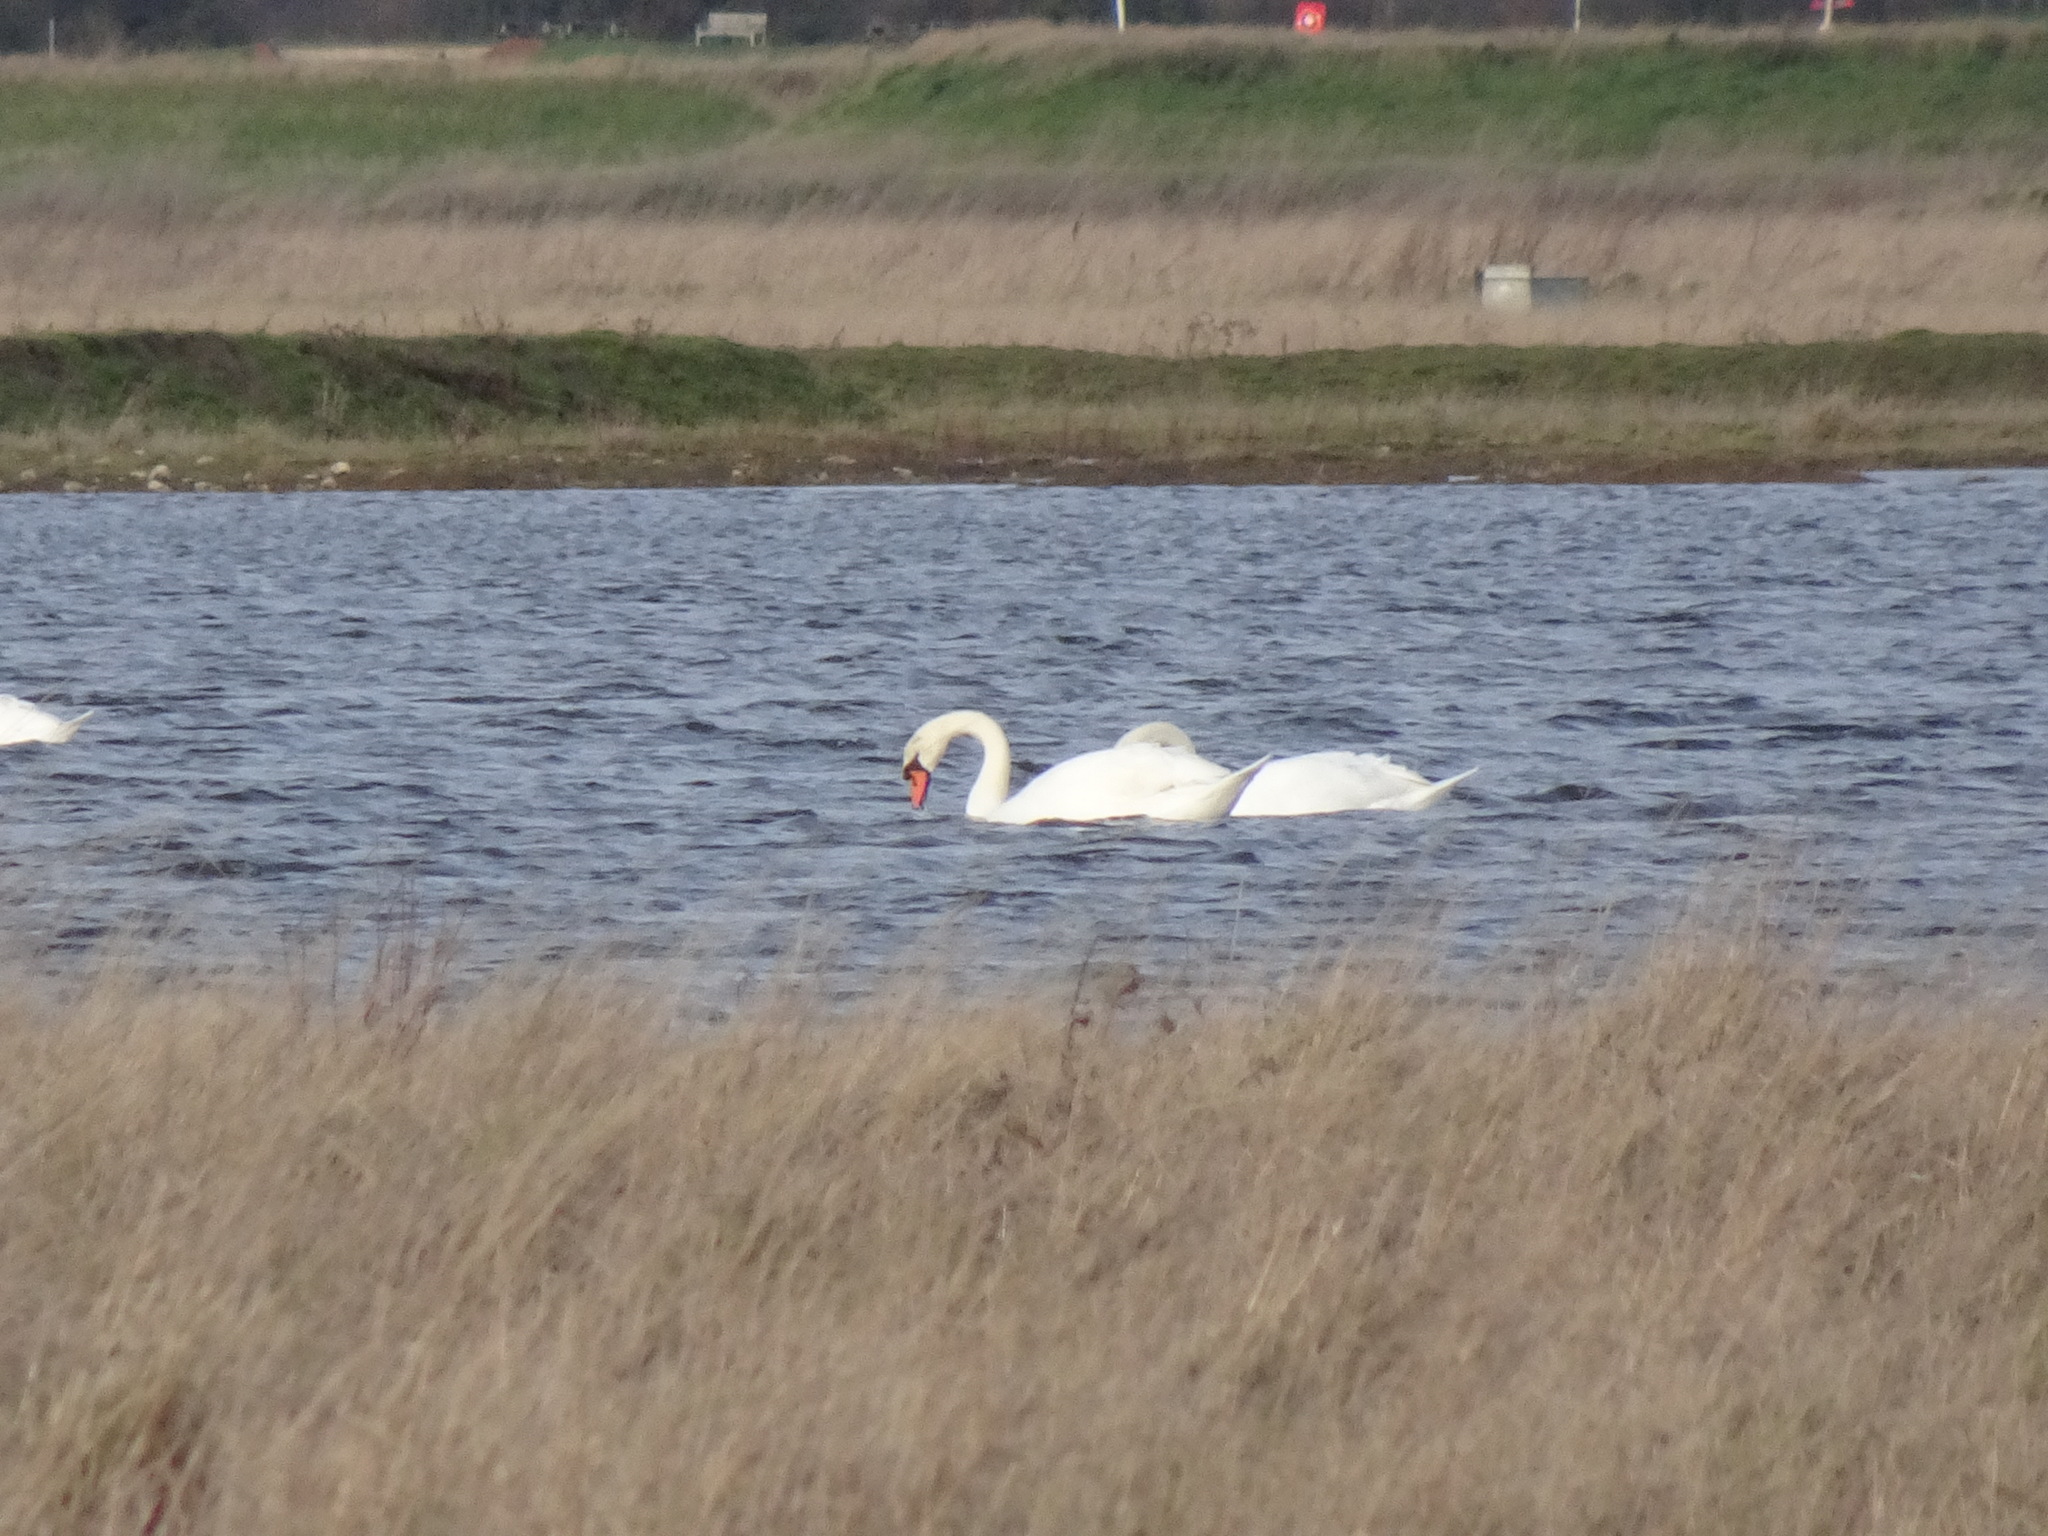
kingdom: Animalia
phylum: Chordata
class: Aves
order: Anseriformes
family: Anatidae
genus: Cygnus
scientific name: Cygnus olor
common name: Mute swan
